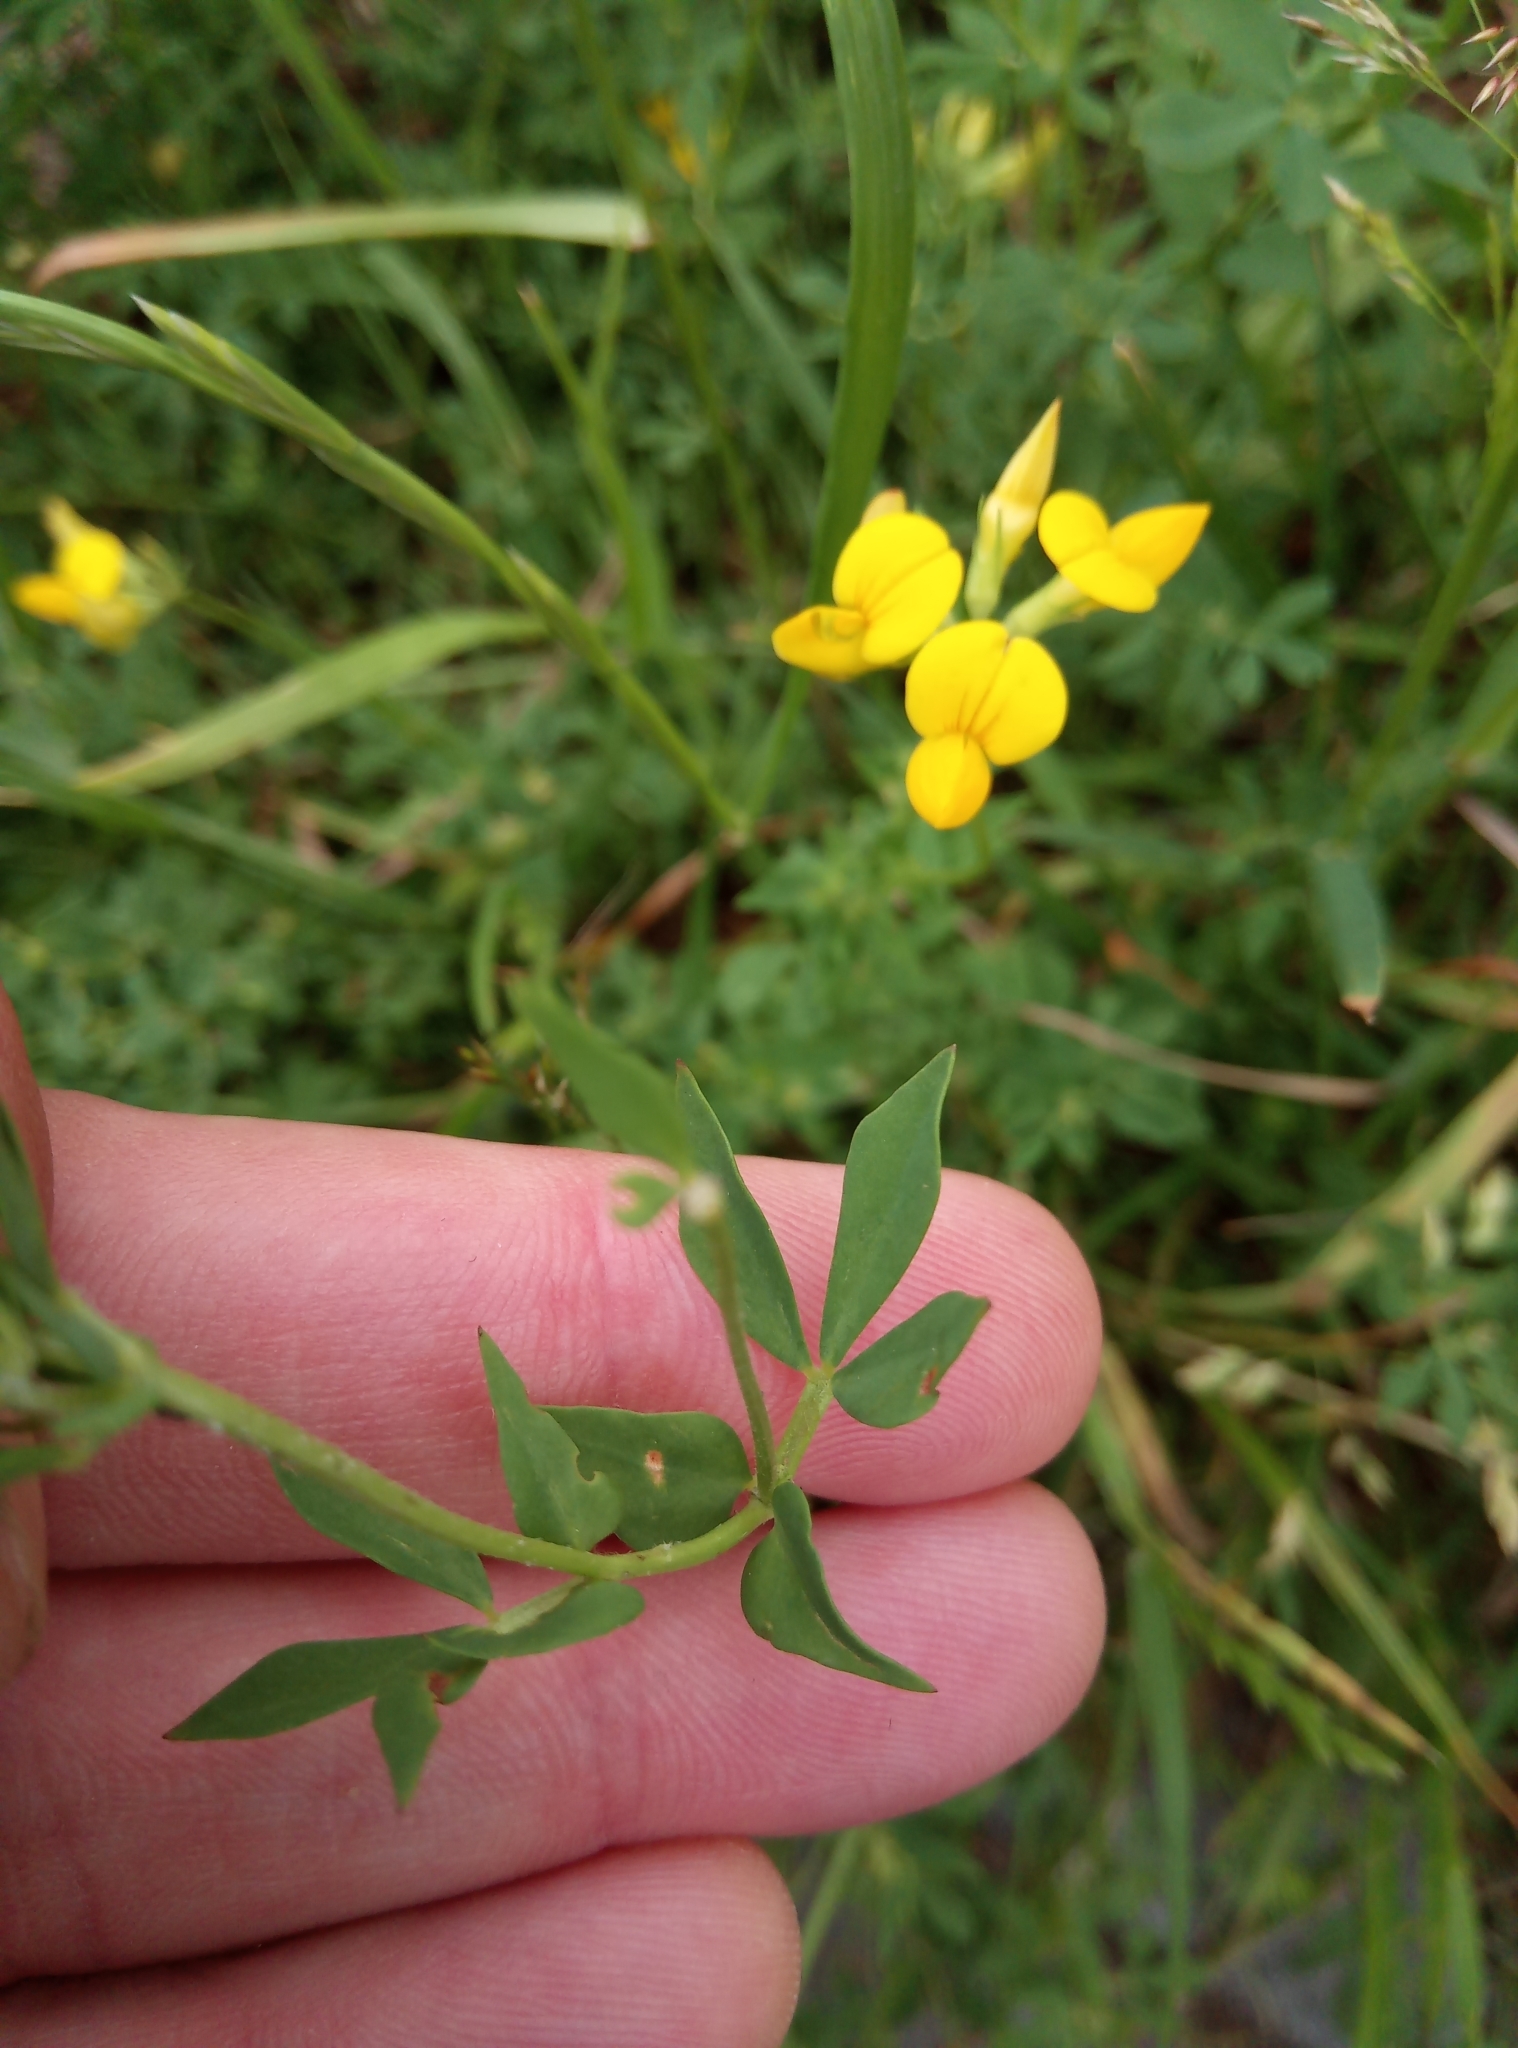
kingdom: Plantae
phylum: Tracheophyta
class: Magnoliopsida
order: Fabales
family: Fabaceae
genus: Lotus
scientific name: Lotus corniculatus
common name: Common bird's-foot-trefoil
